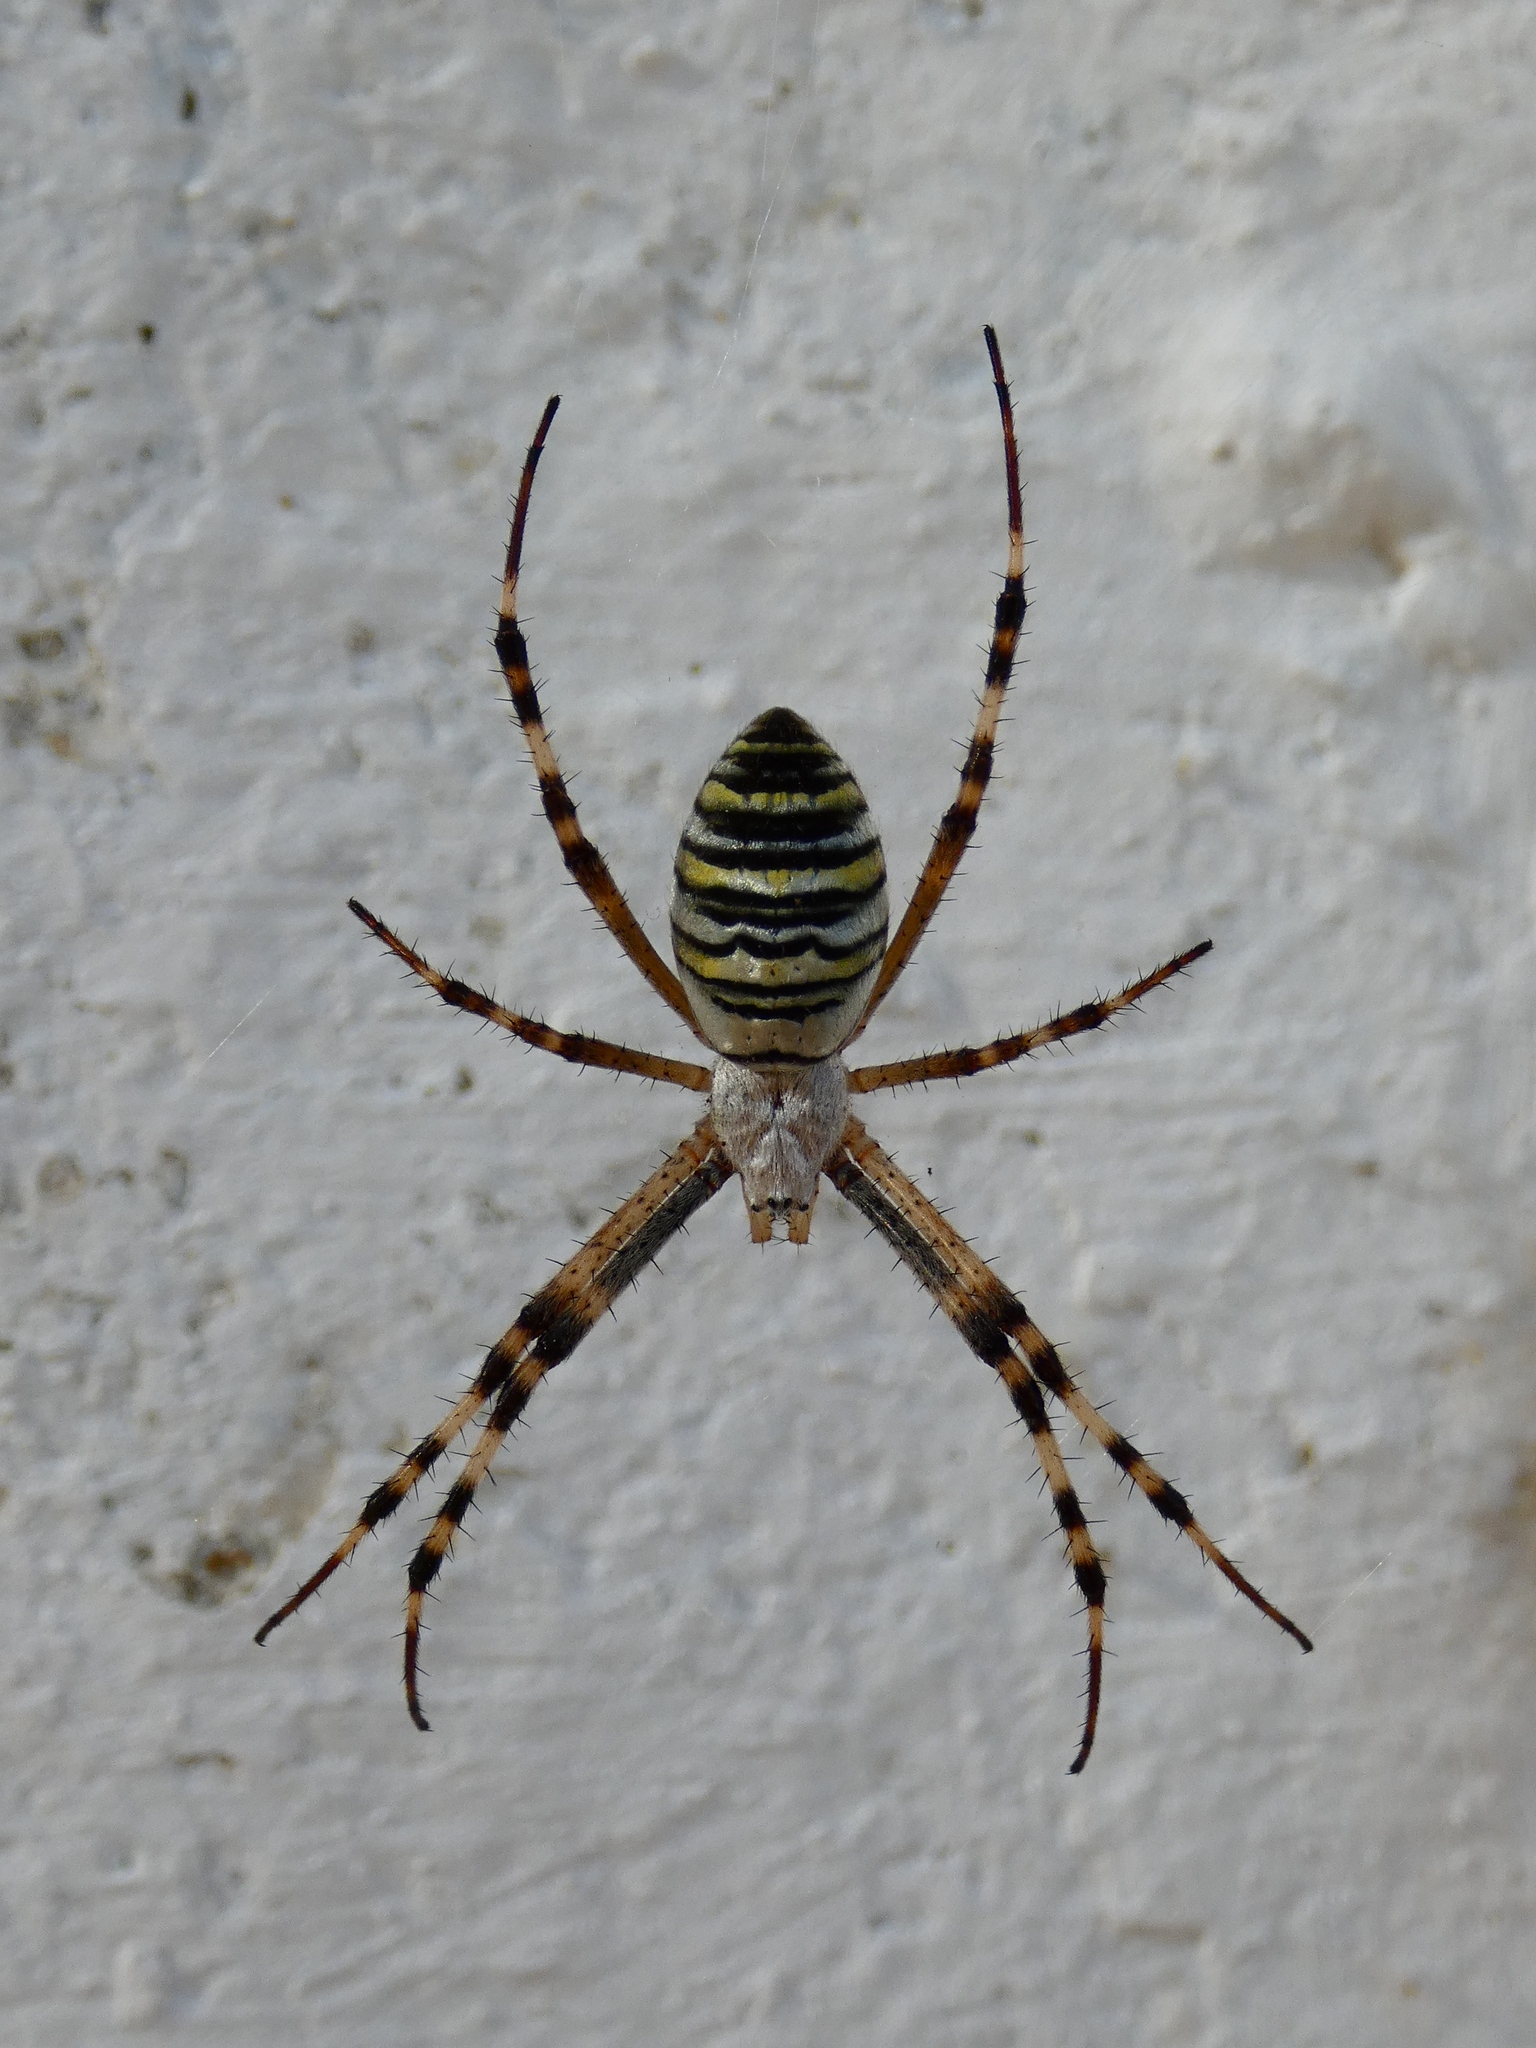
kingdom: Animalia
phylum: Arthropoda
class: Arachnida
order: Araneae
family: Araneidae
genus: Argiope
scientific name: Argiope bruennichi
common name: Wasp spider
